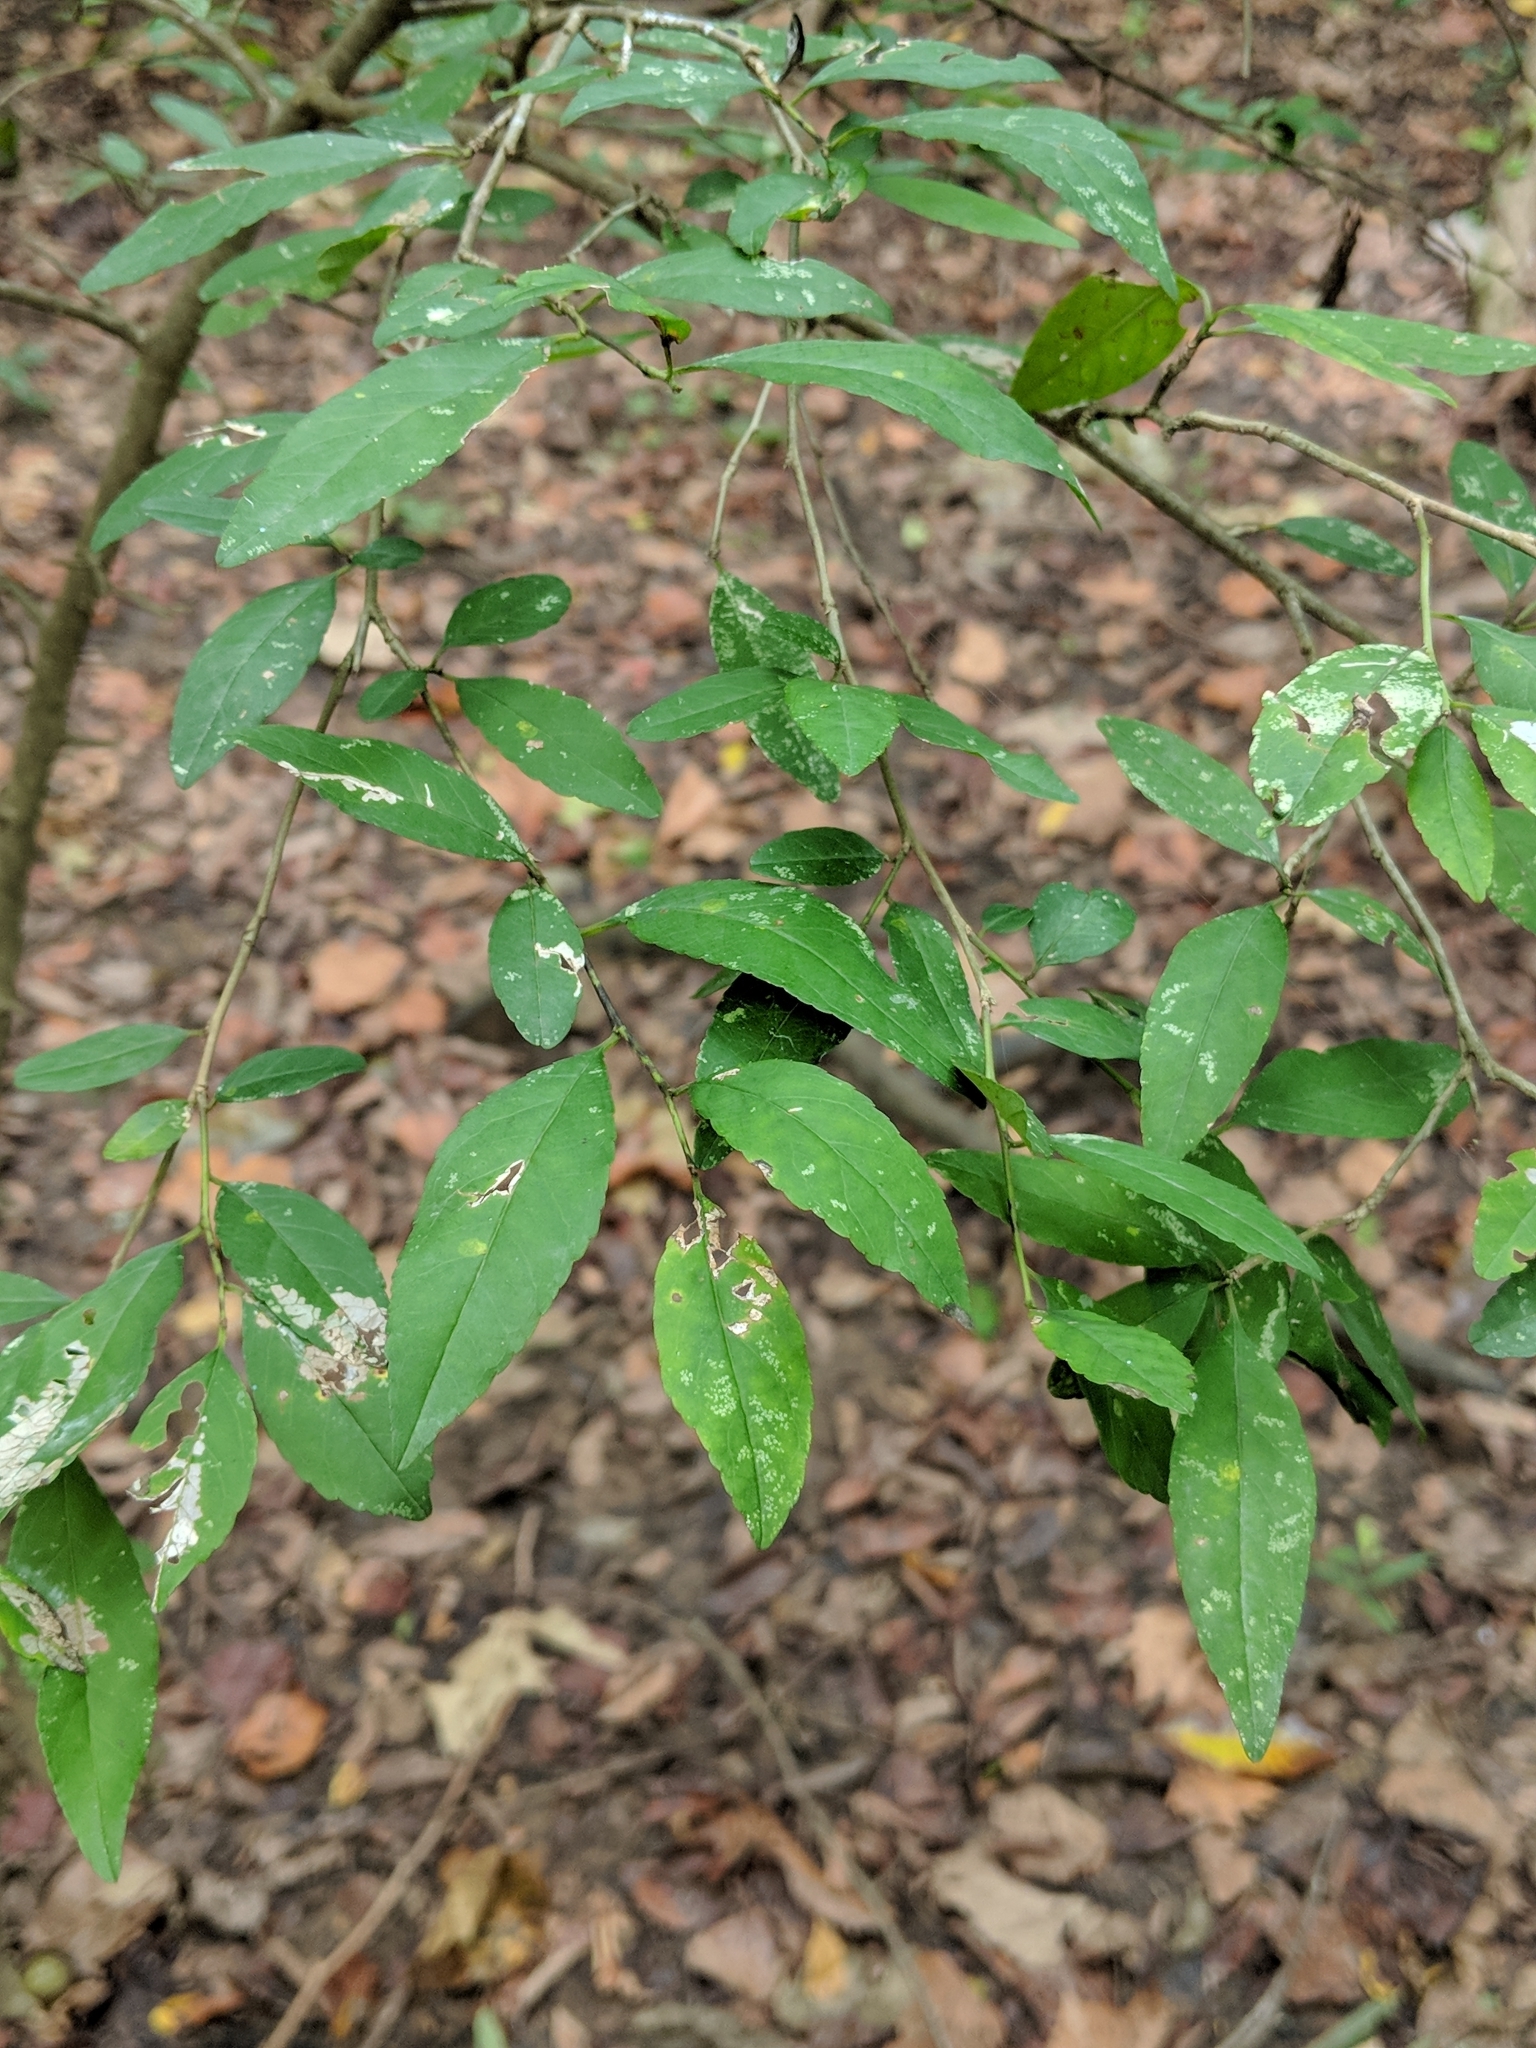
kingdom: Plantae
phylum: Tracheophyta
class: Magnoliopsida
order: Aquifoliales
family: Aquifoliaceae
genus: Ilex
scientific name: Ilex decidua
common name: Possum-haw
